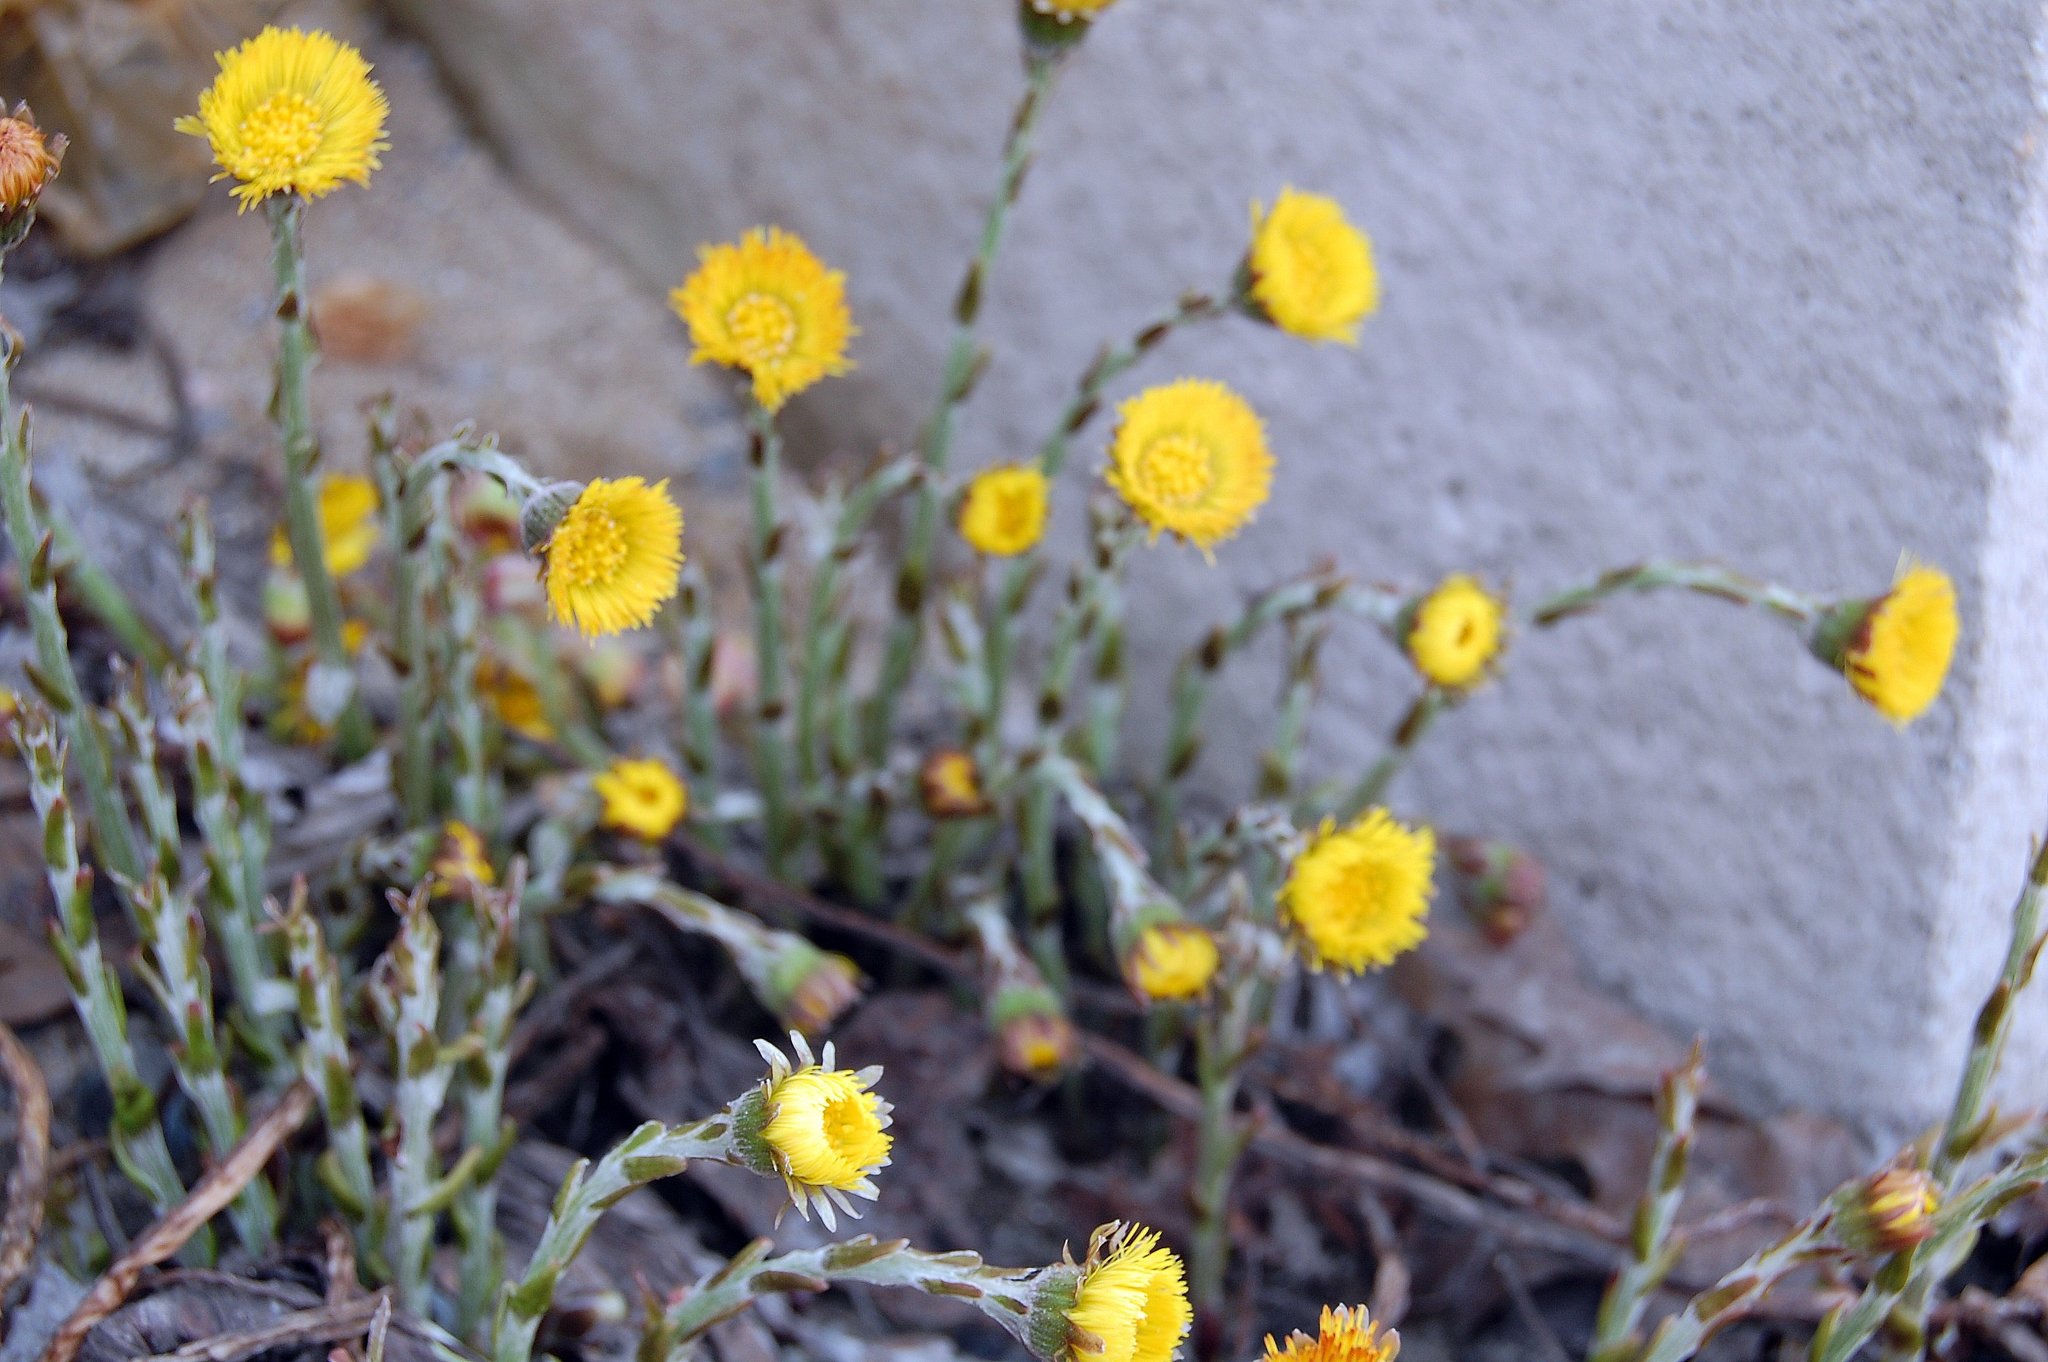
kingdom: Plantae
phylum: Tracheophyta
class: Magnoliopsida
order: Asterales
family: Asteraceae
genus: Tussilago
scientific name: Tussilago farfara
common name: Coltsfoot
